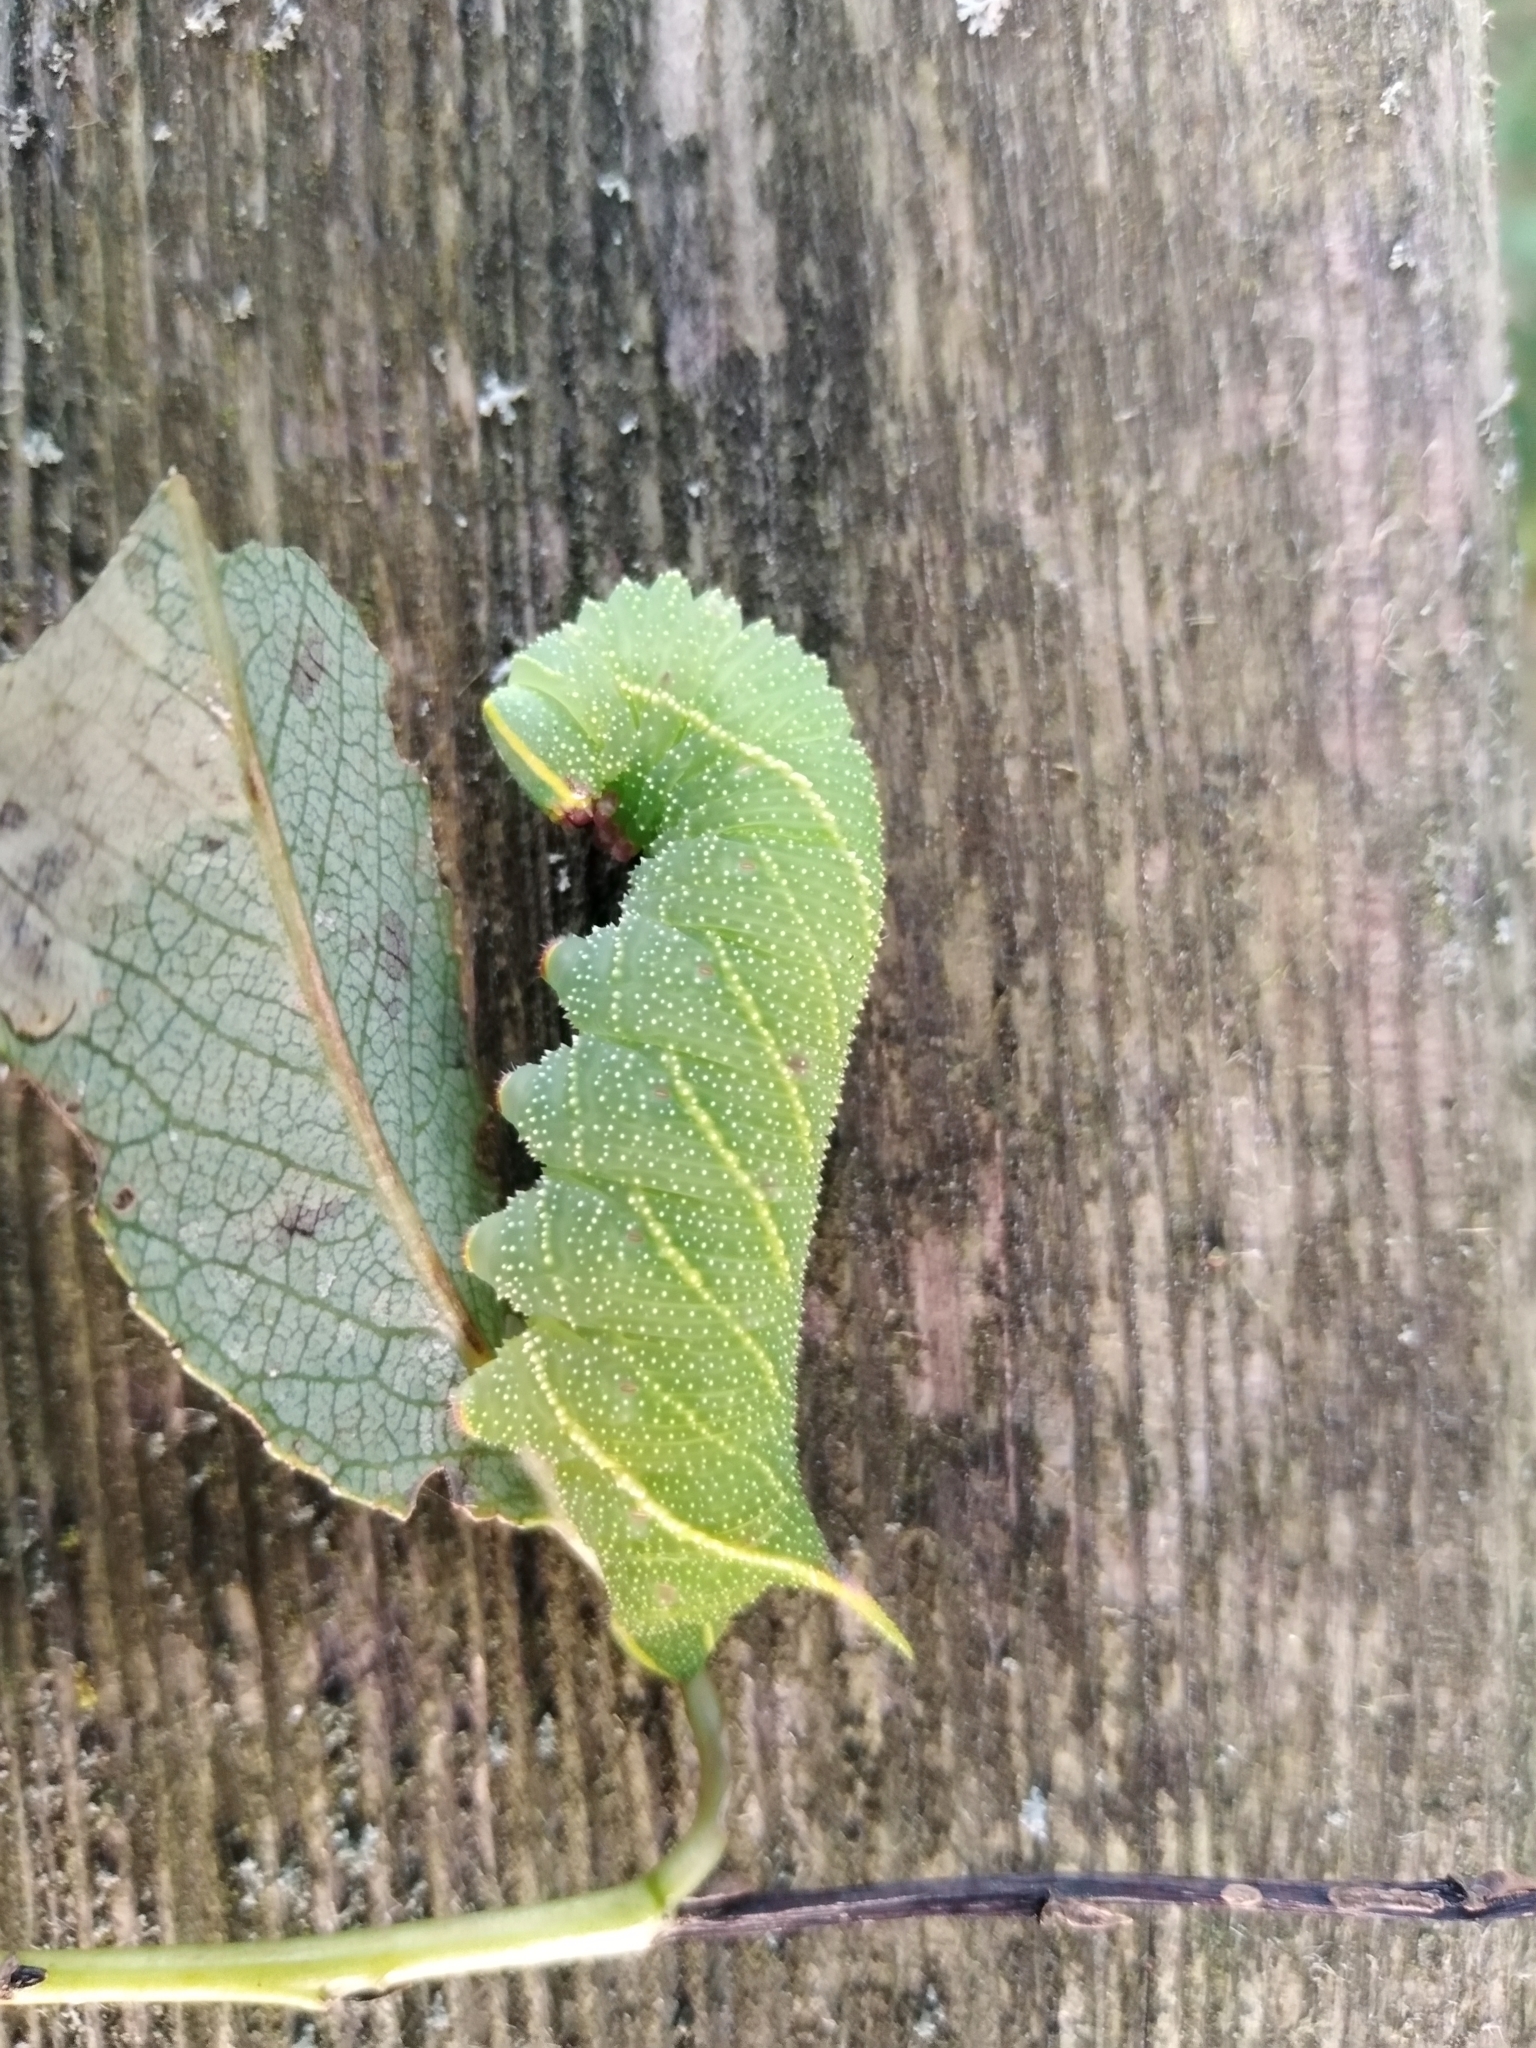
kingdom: Animalia
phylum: Arthropoda
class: Insecta
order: Lepidoptera
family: Sphingidae
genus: Laothoe
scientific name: Laothoe populi
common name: Poplar hawk-moth
